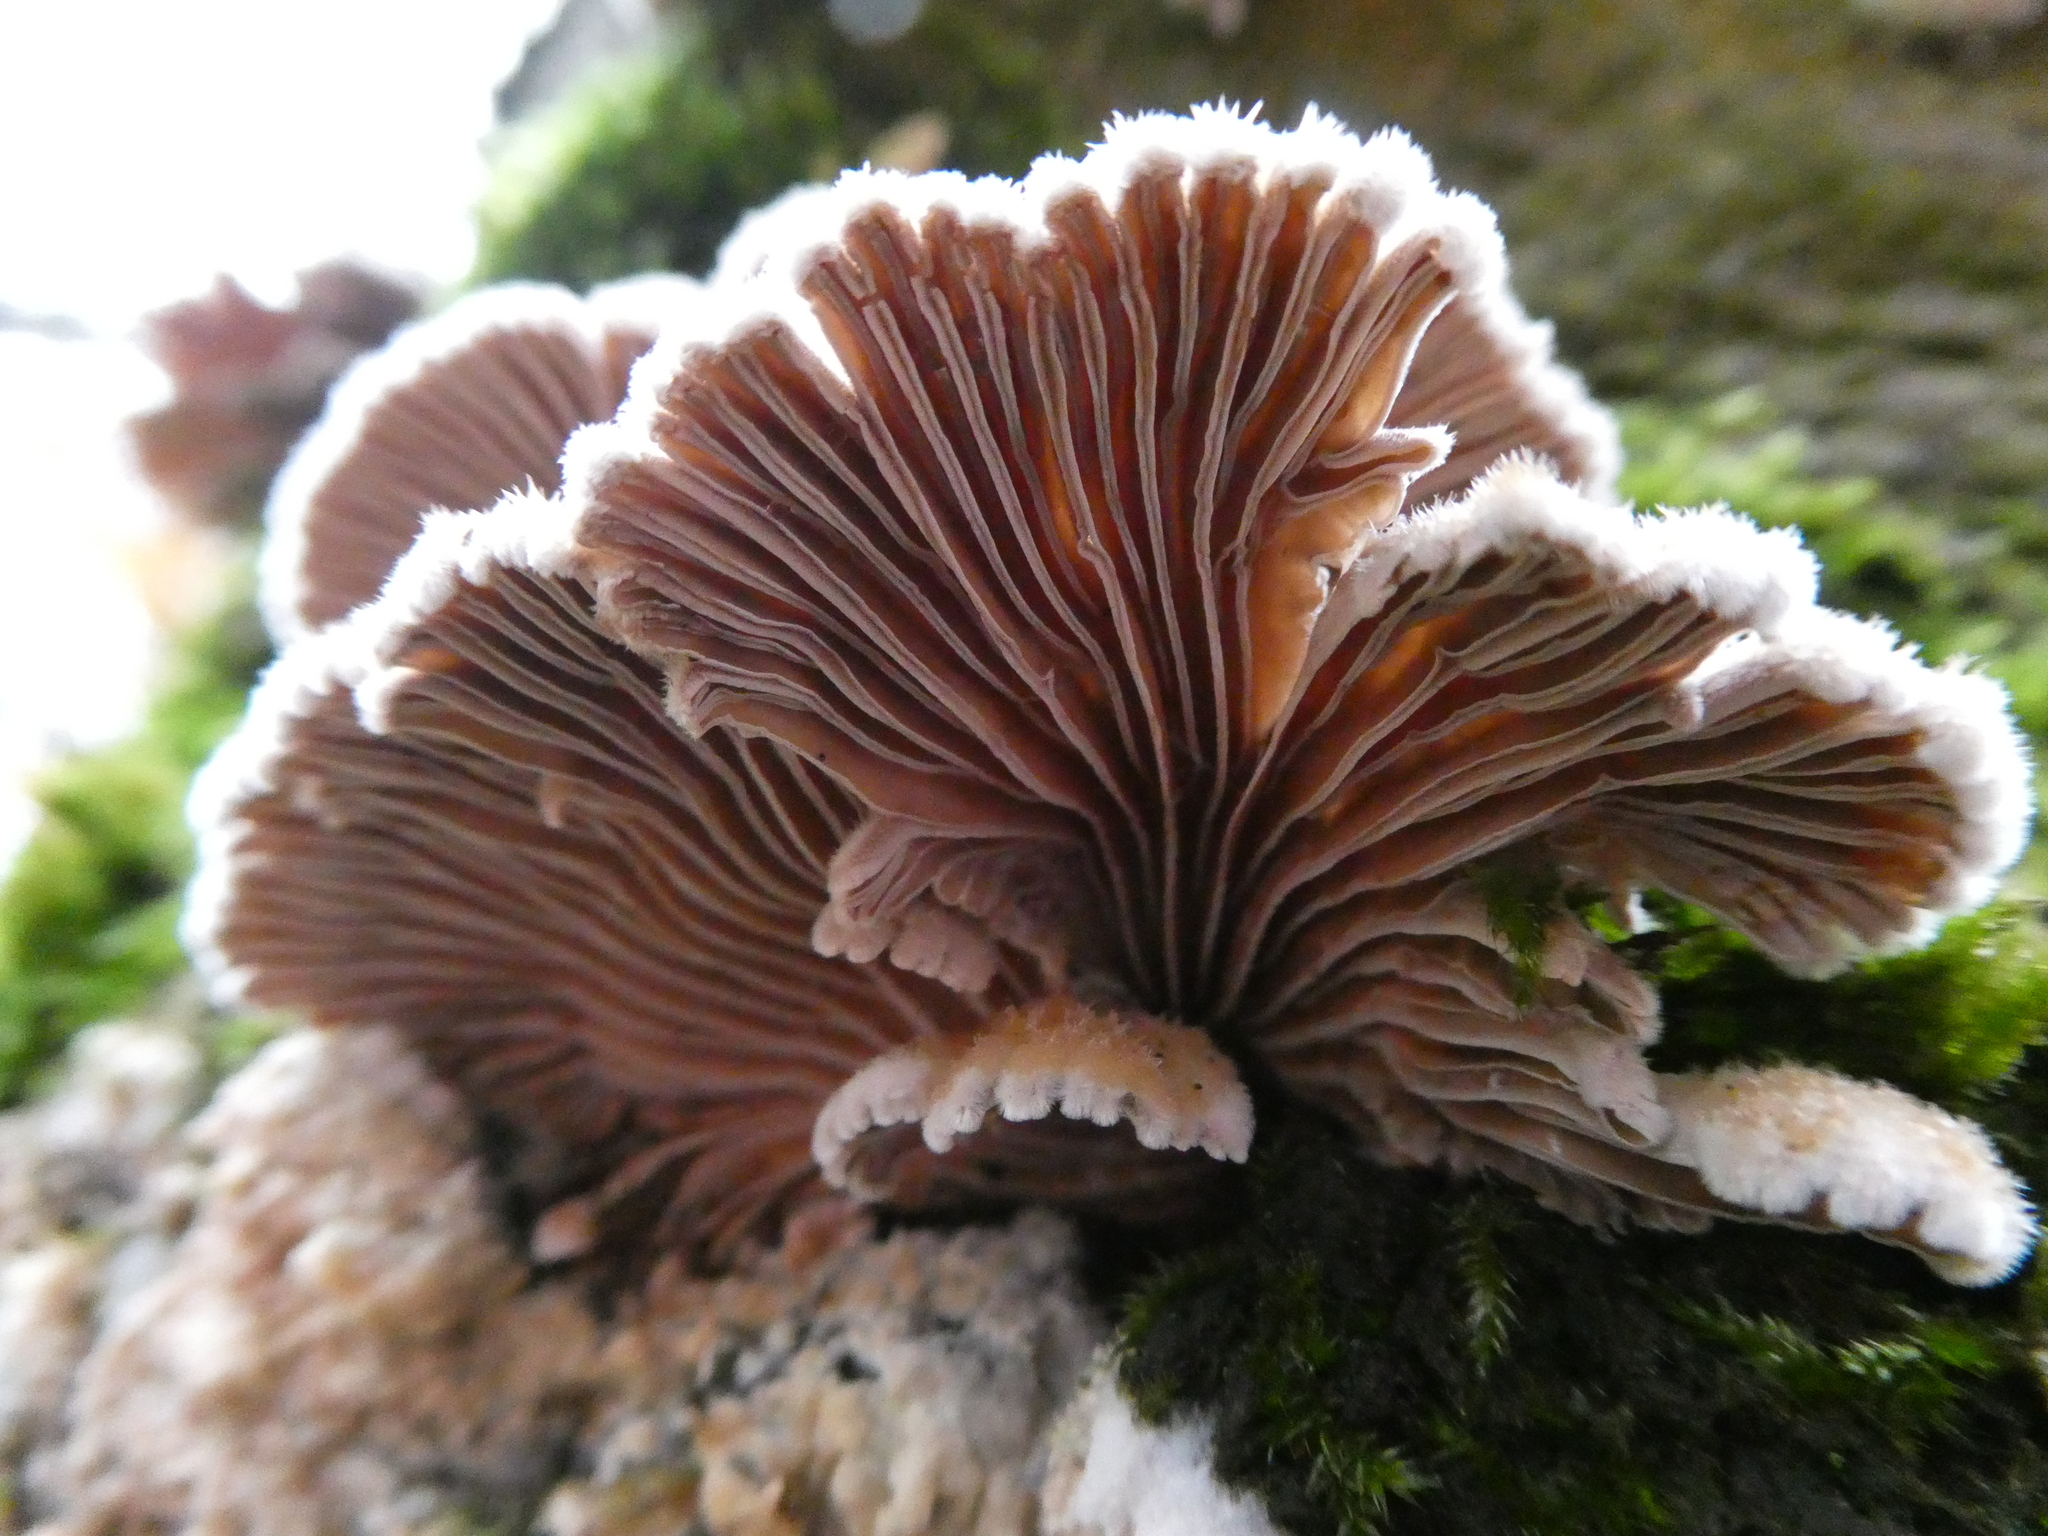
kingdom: Fungi
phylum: Basidiomycota
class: Agaricomycetes
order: Agaricales
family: Schizophyllaceae
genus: Schizophyllum
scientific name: Schizophyllum commune
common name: Common porecrust
